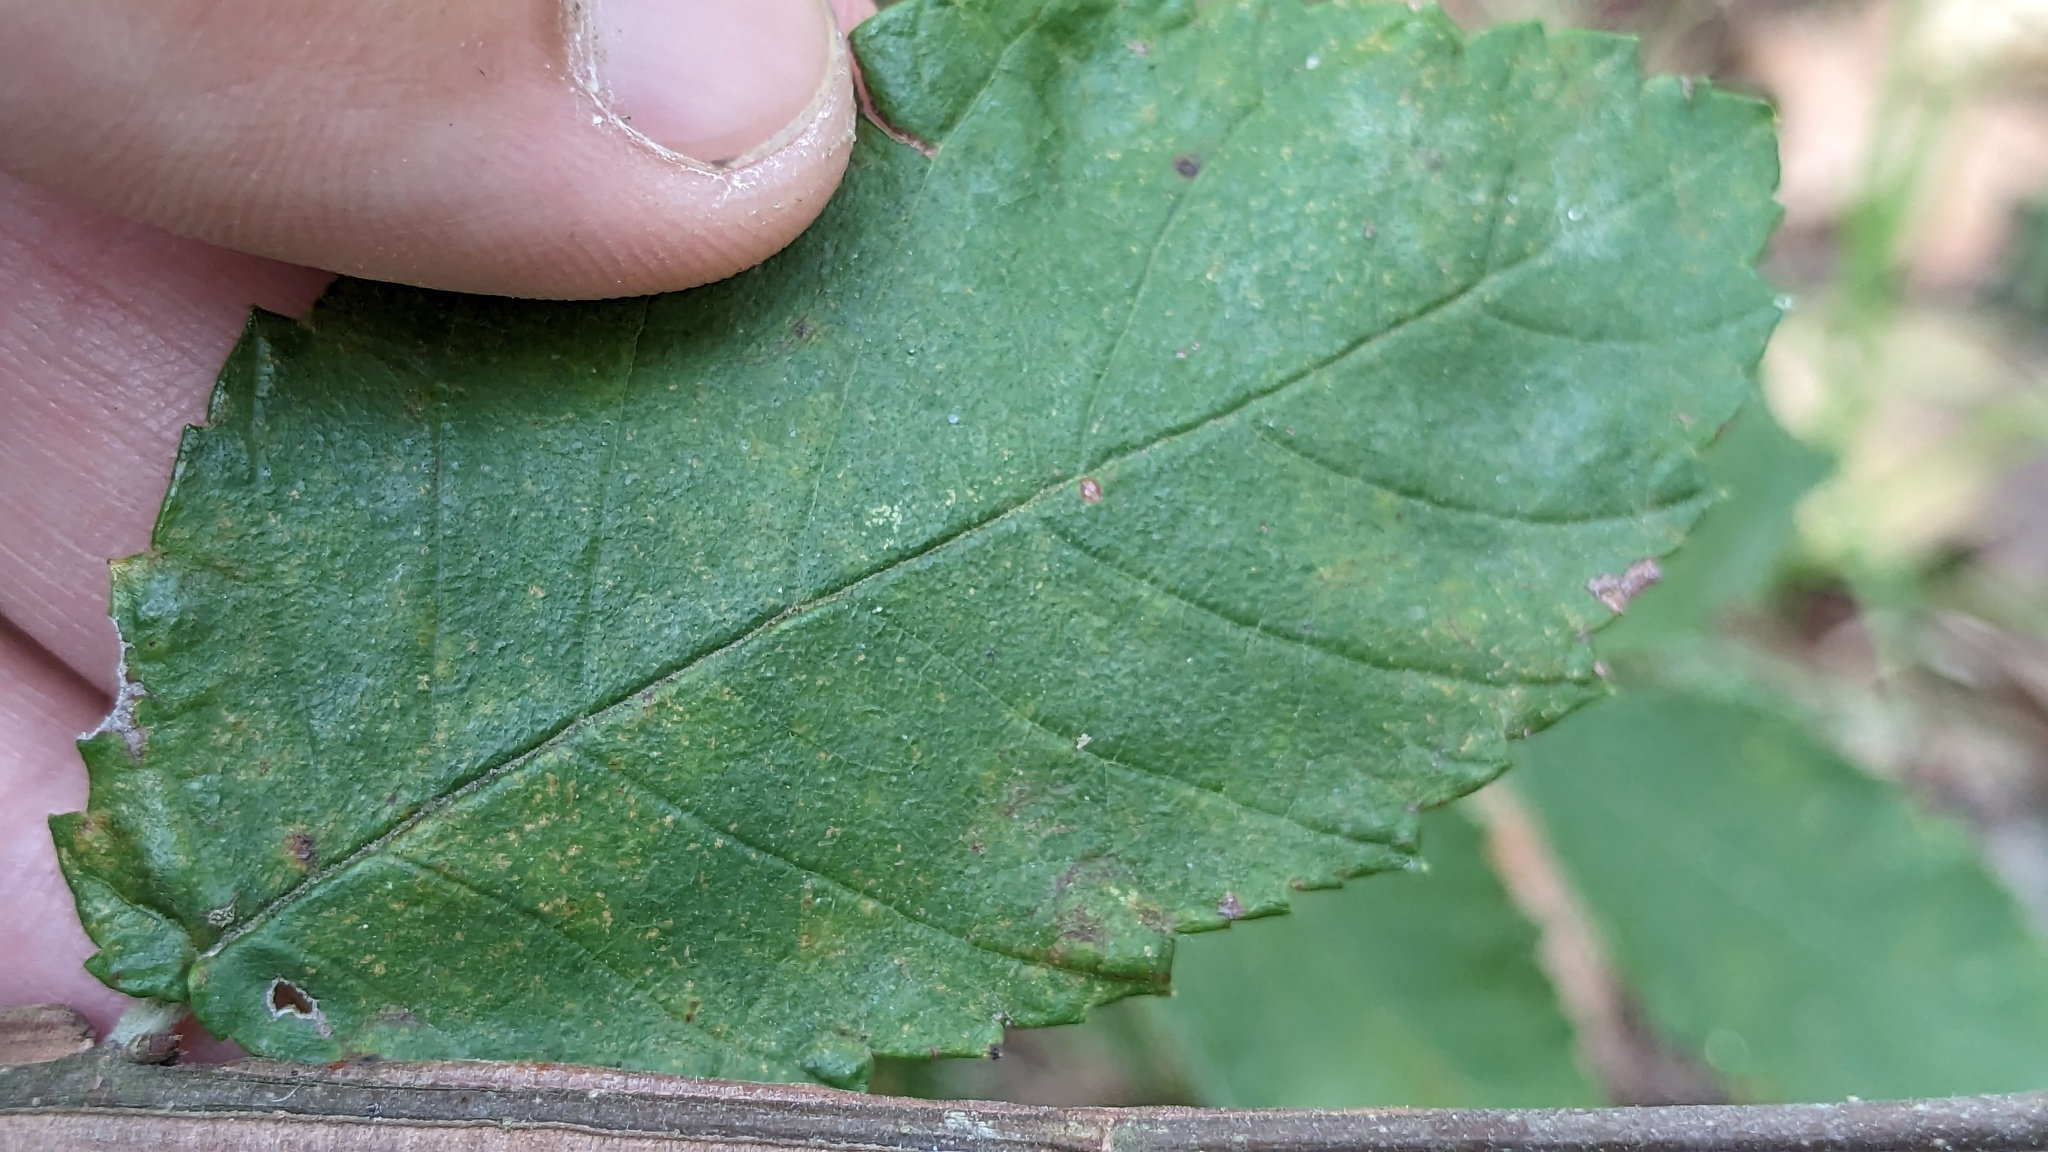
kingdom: Plantae
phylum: Tracheophyta
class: Magnoliopsida
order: Rosales
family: Ulmaceae
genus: Ulmus
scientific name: Ulmus alata
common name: Winged elm
